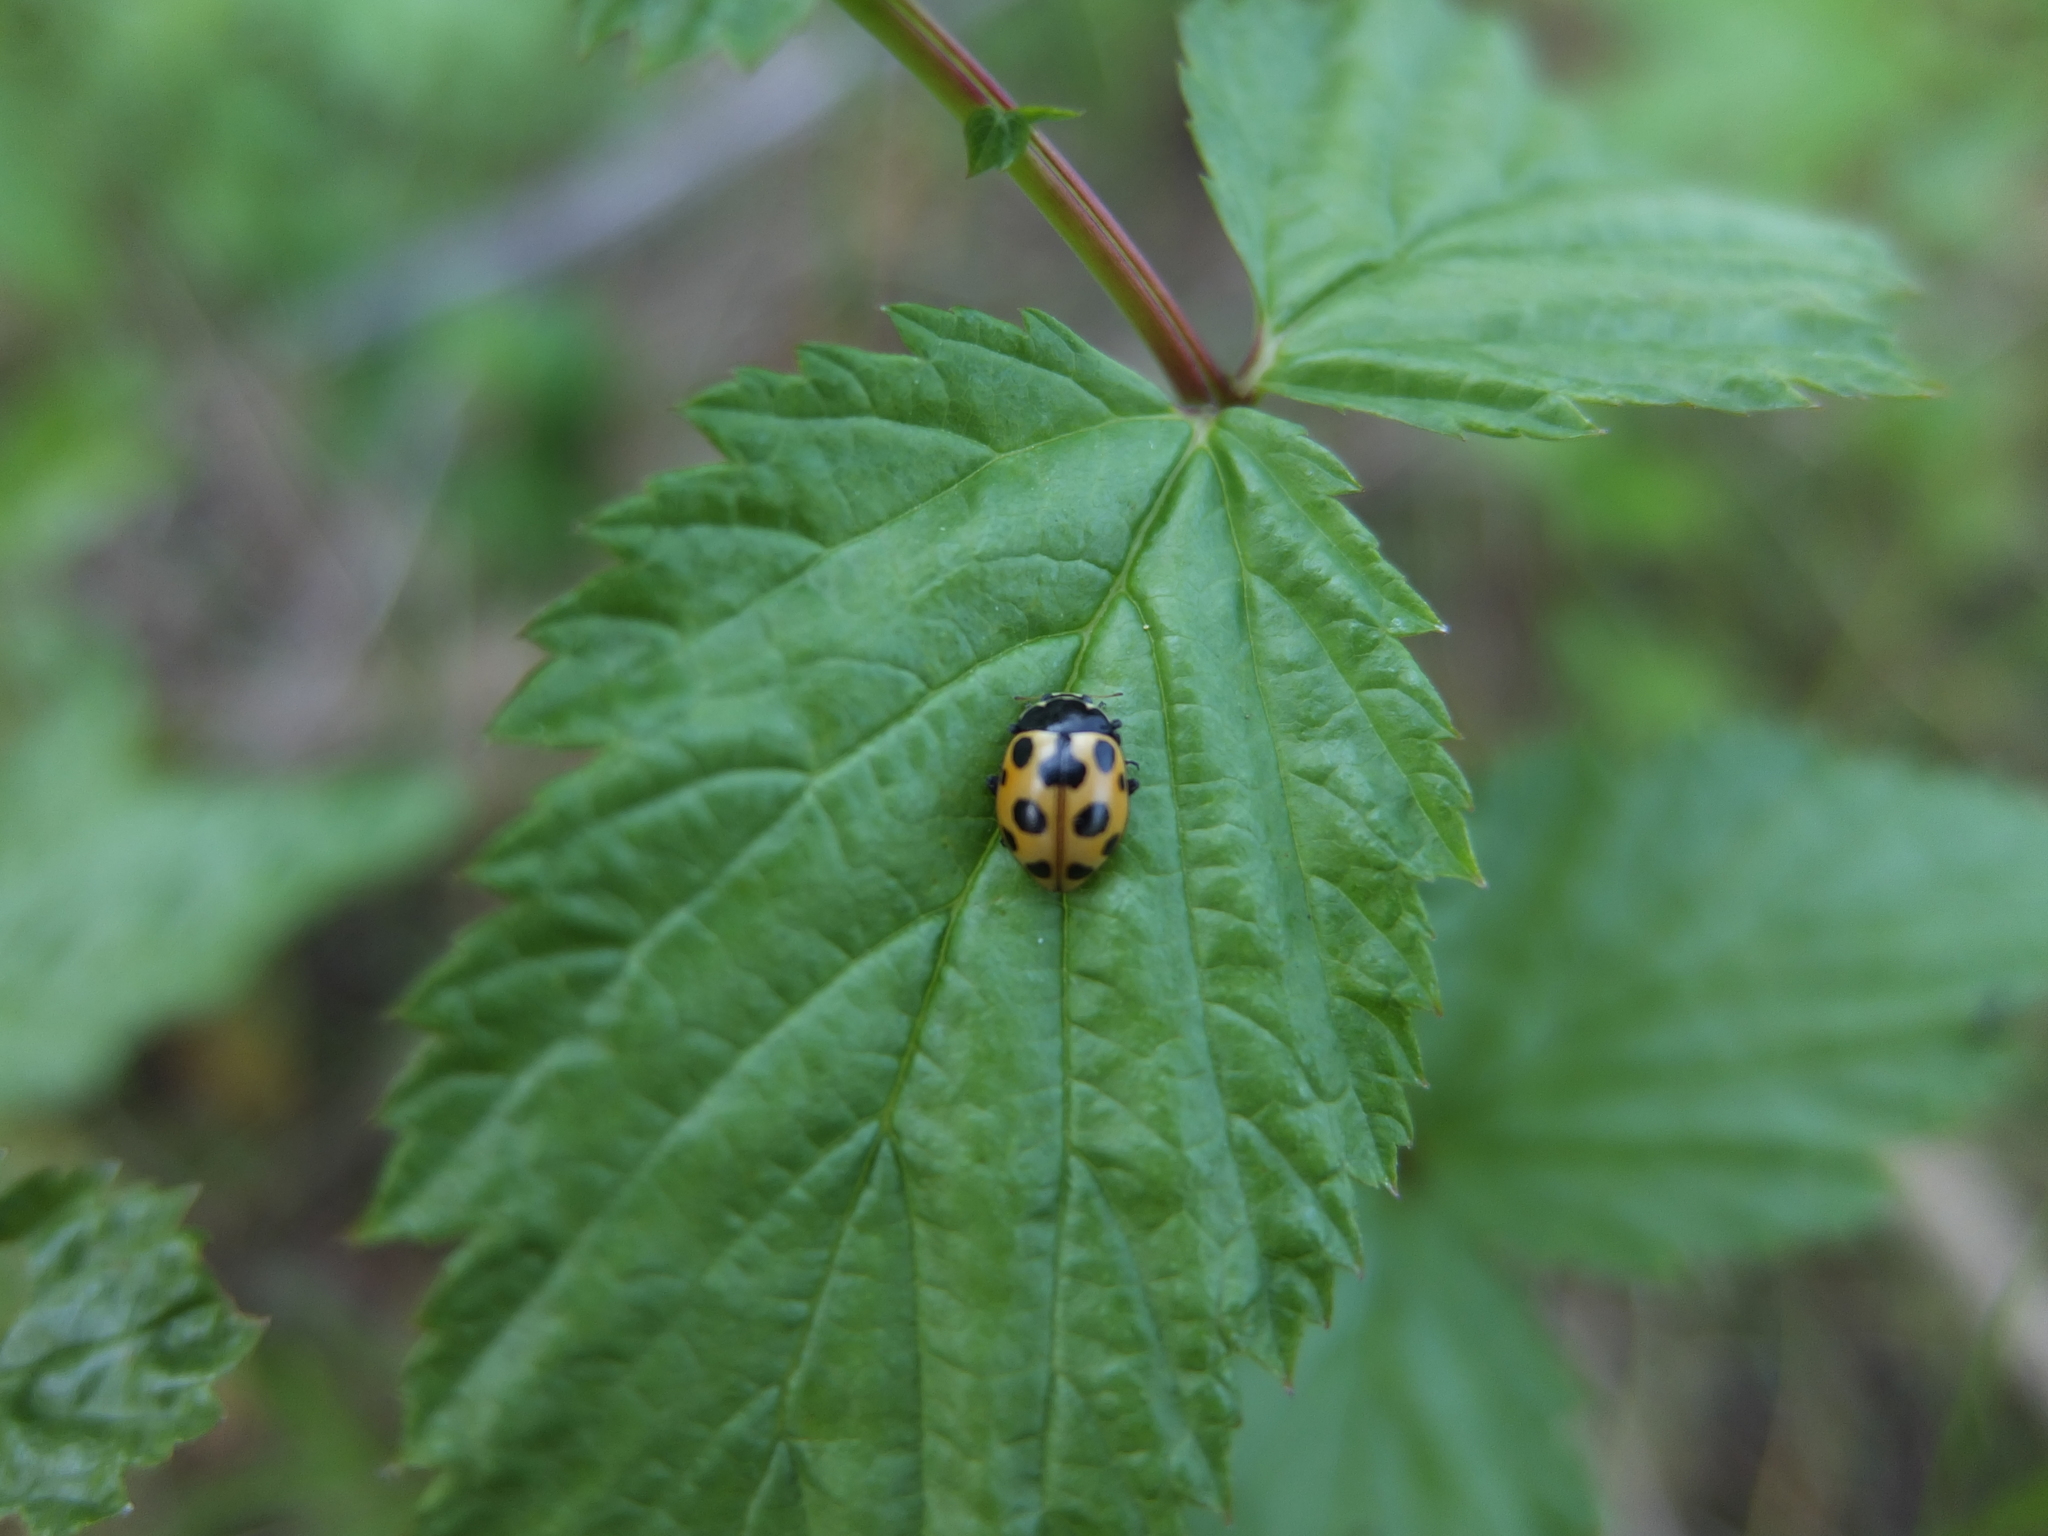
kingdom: Animalia
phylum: Arthropoda
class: Insecta
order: Coleoptera
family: Coccinellidae
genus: Ceratomegilla
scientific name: Ceratomegilla notata
